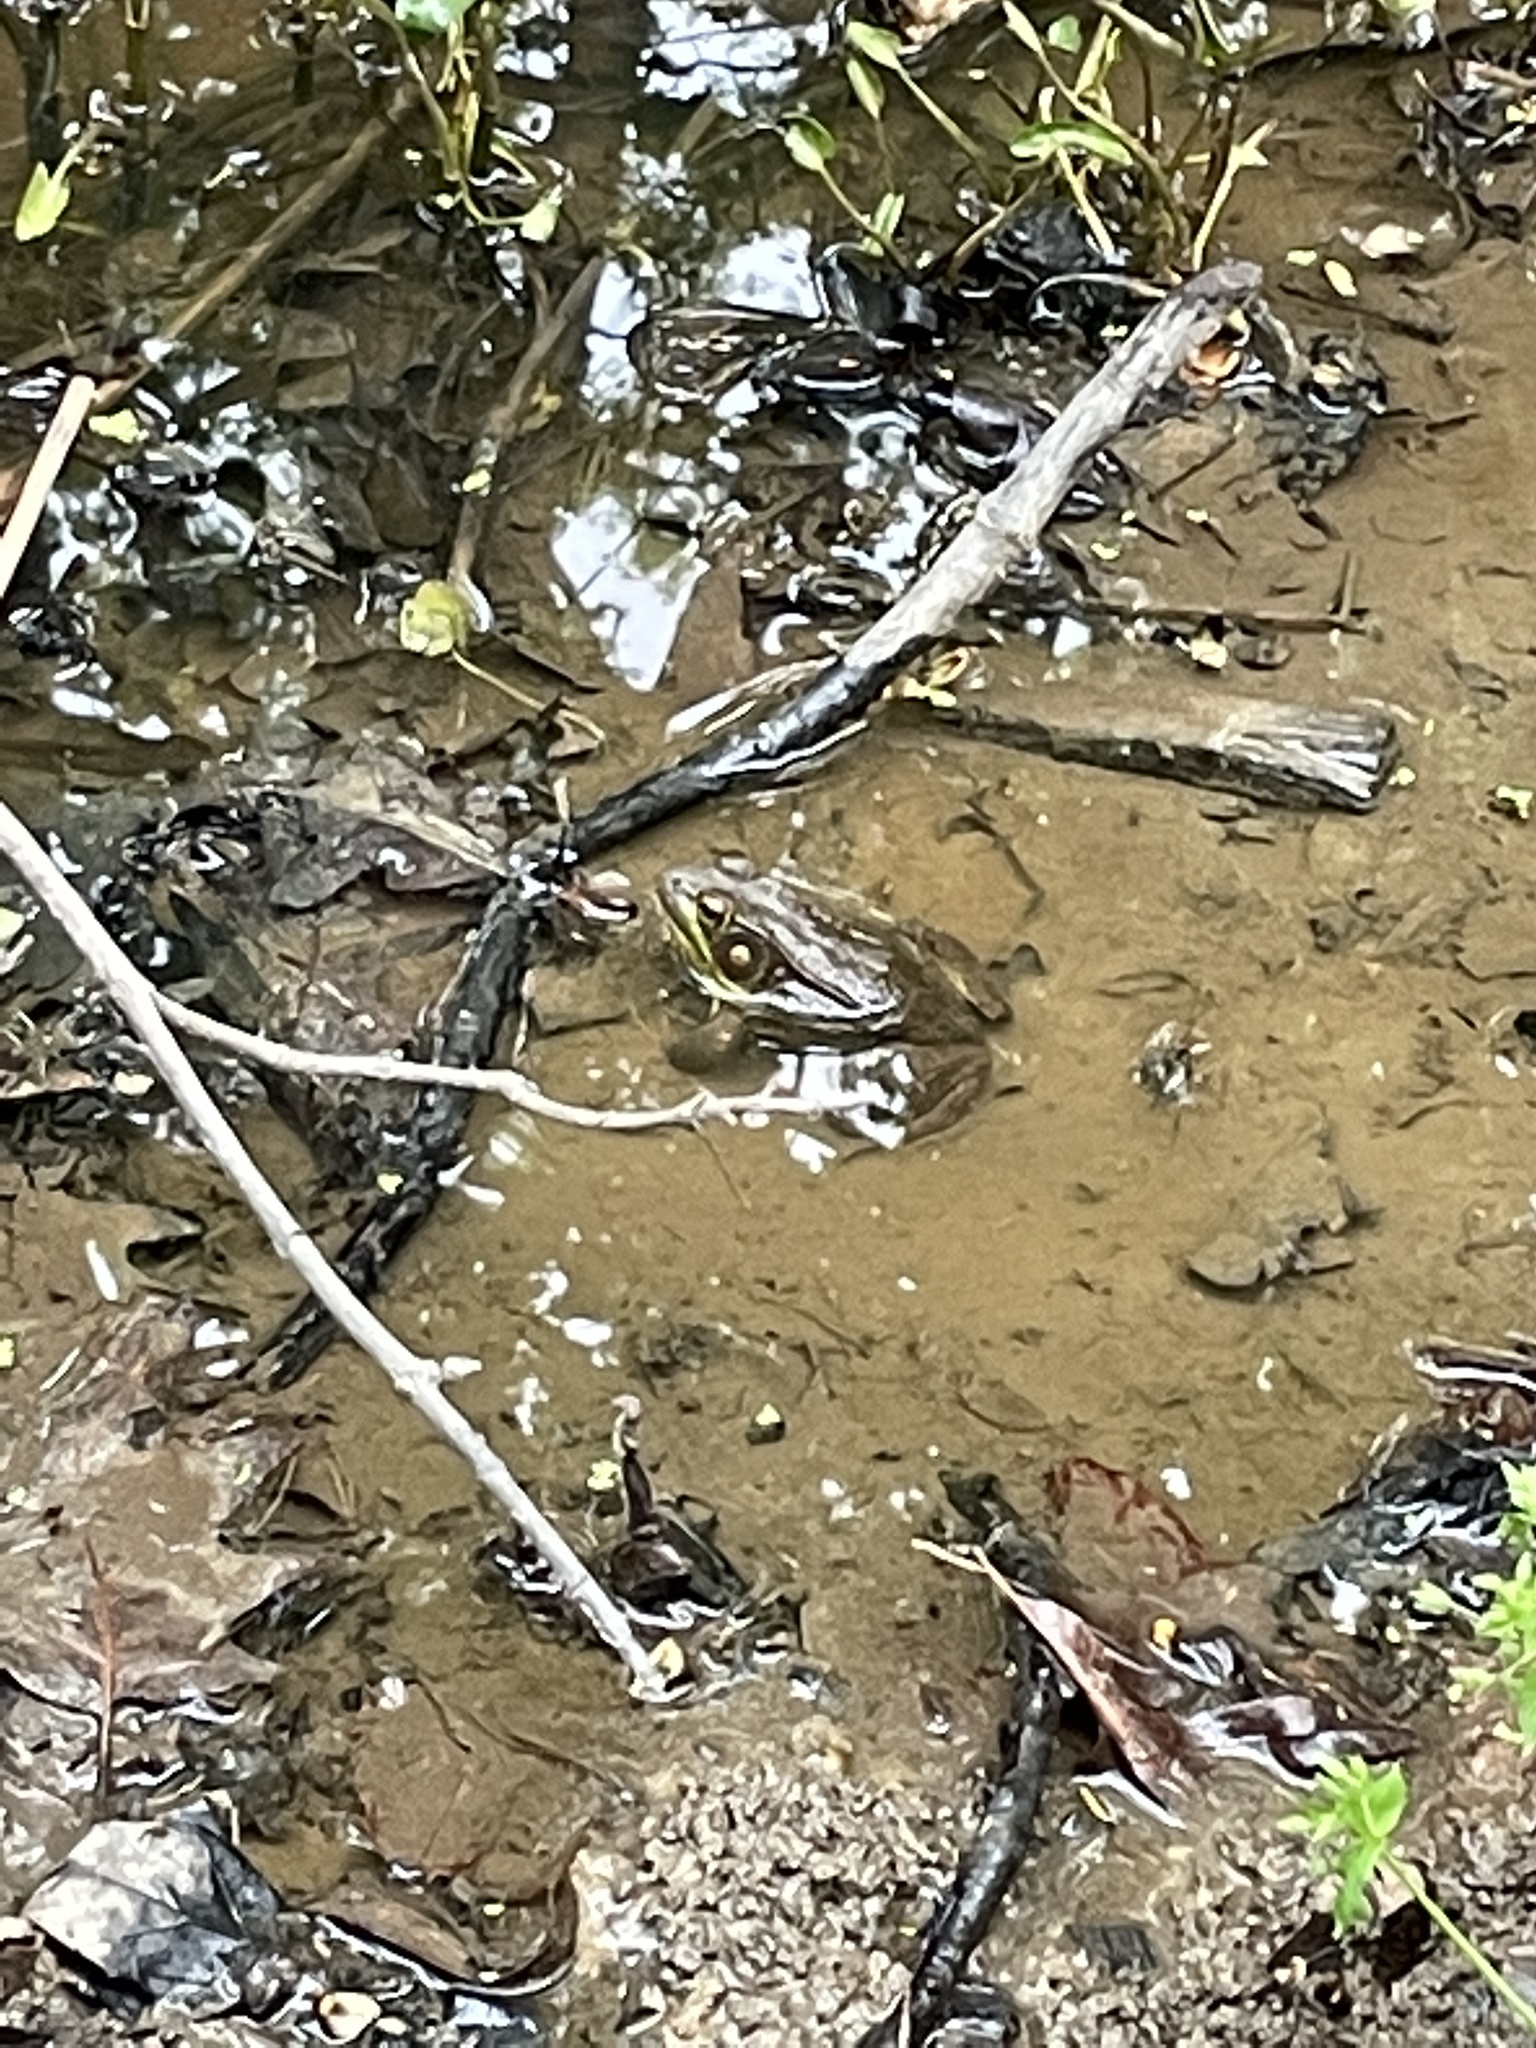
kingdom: Animalia
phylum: Chordata
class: Amphibia
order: Anura
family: Ranidae
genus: Lithobates
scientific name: Lithobates clamitans
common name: Green frog
